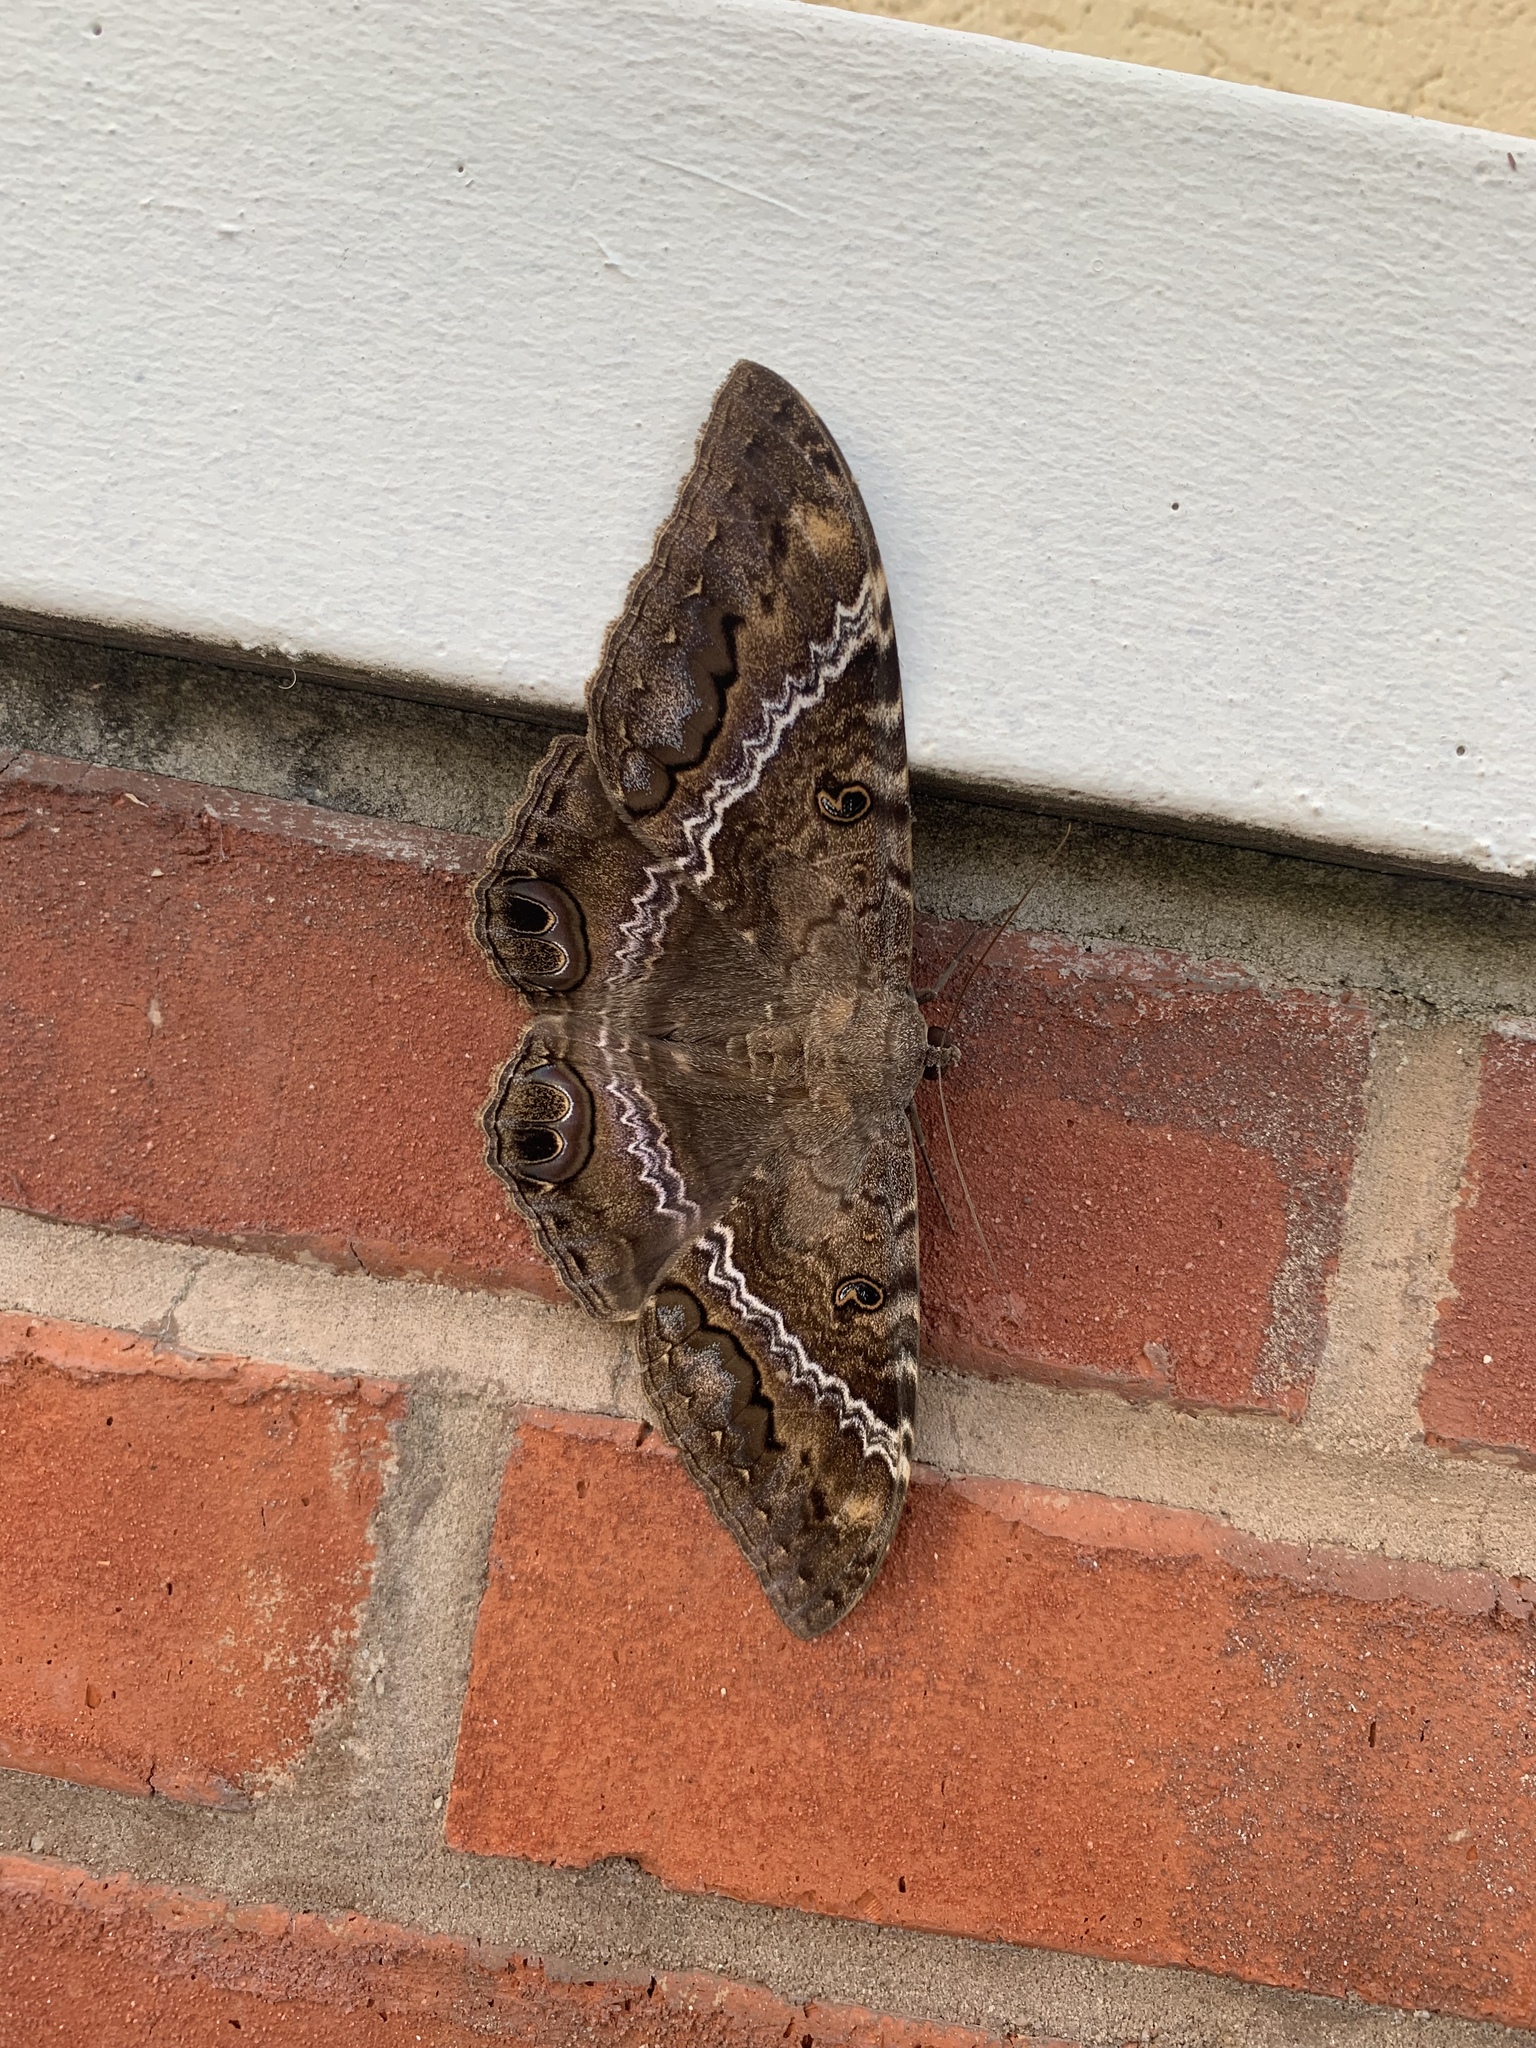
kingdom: Animalia
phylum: Arthropoda
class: Insecta
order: Lepidoptera
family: Erebidae
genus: Ascalapha
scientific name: Ascalapha odorata
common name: Black witch
